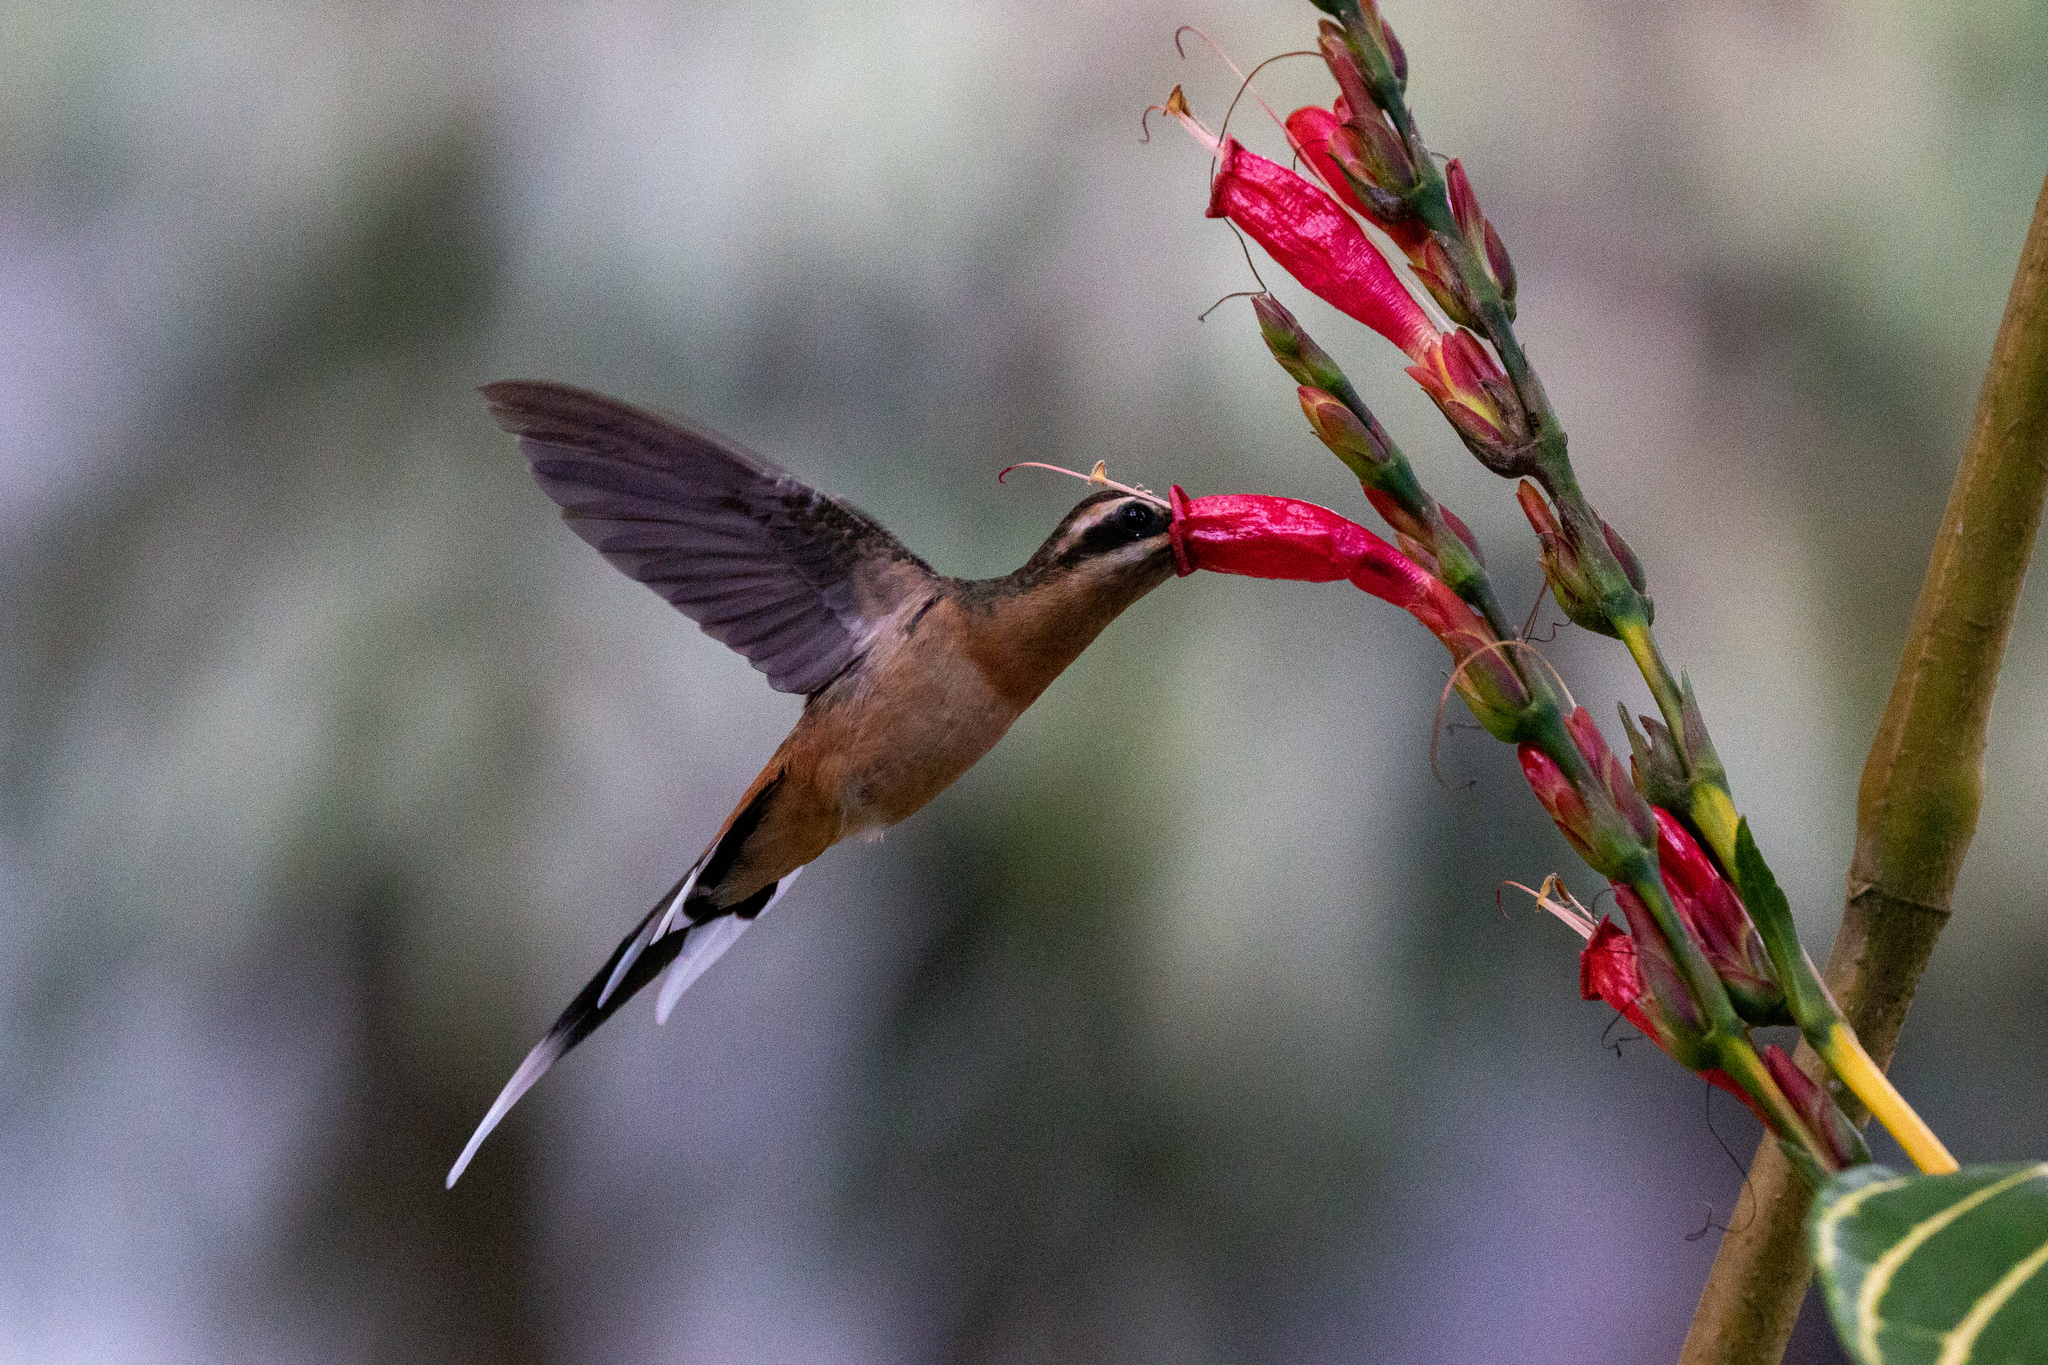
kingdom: Animalia
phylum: Chordata
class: Aves
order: Apodiformes
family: Trochilidae
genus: Phaethornis
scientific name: Phaethornis pretrei
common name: Planalto hermit
